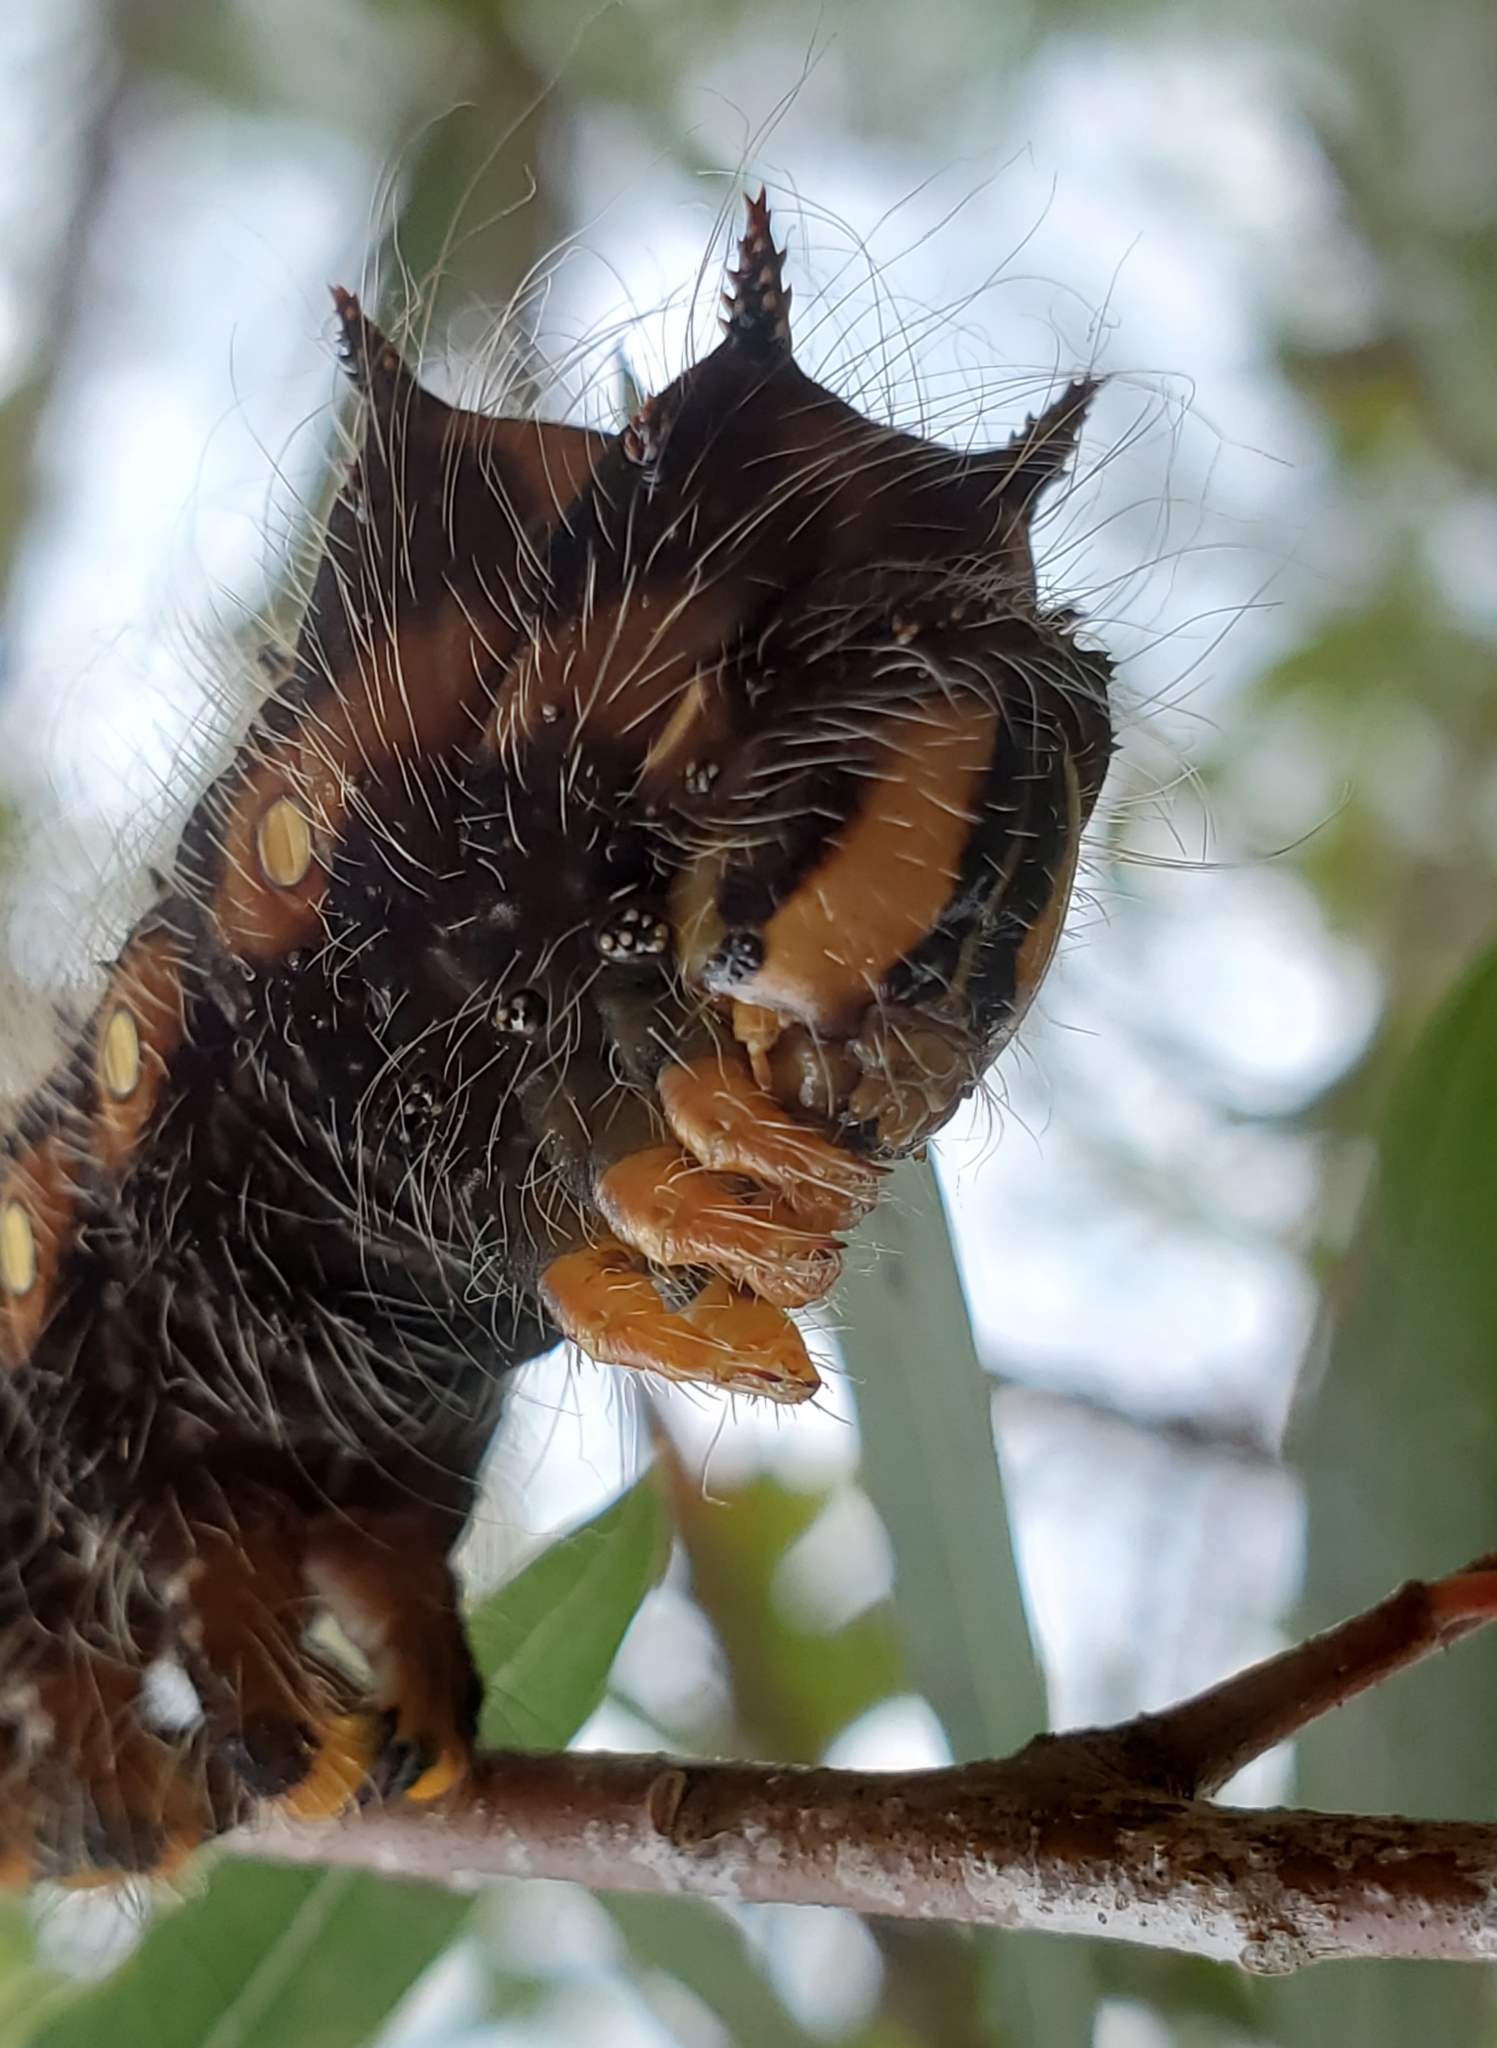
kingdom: Animalia
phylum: Arthropoda
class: Insecta
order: Lepidoptera
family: Saturniidae
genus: Eacles
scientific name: Eacles imperialis
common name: Imperial moth
